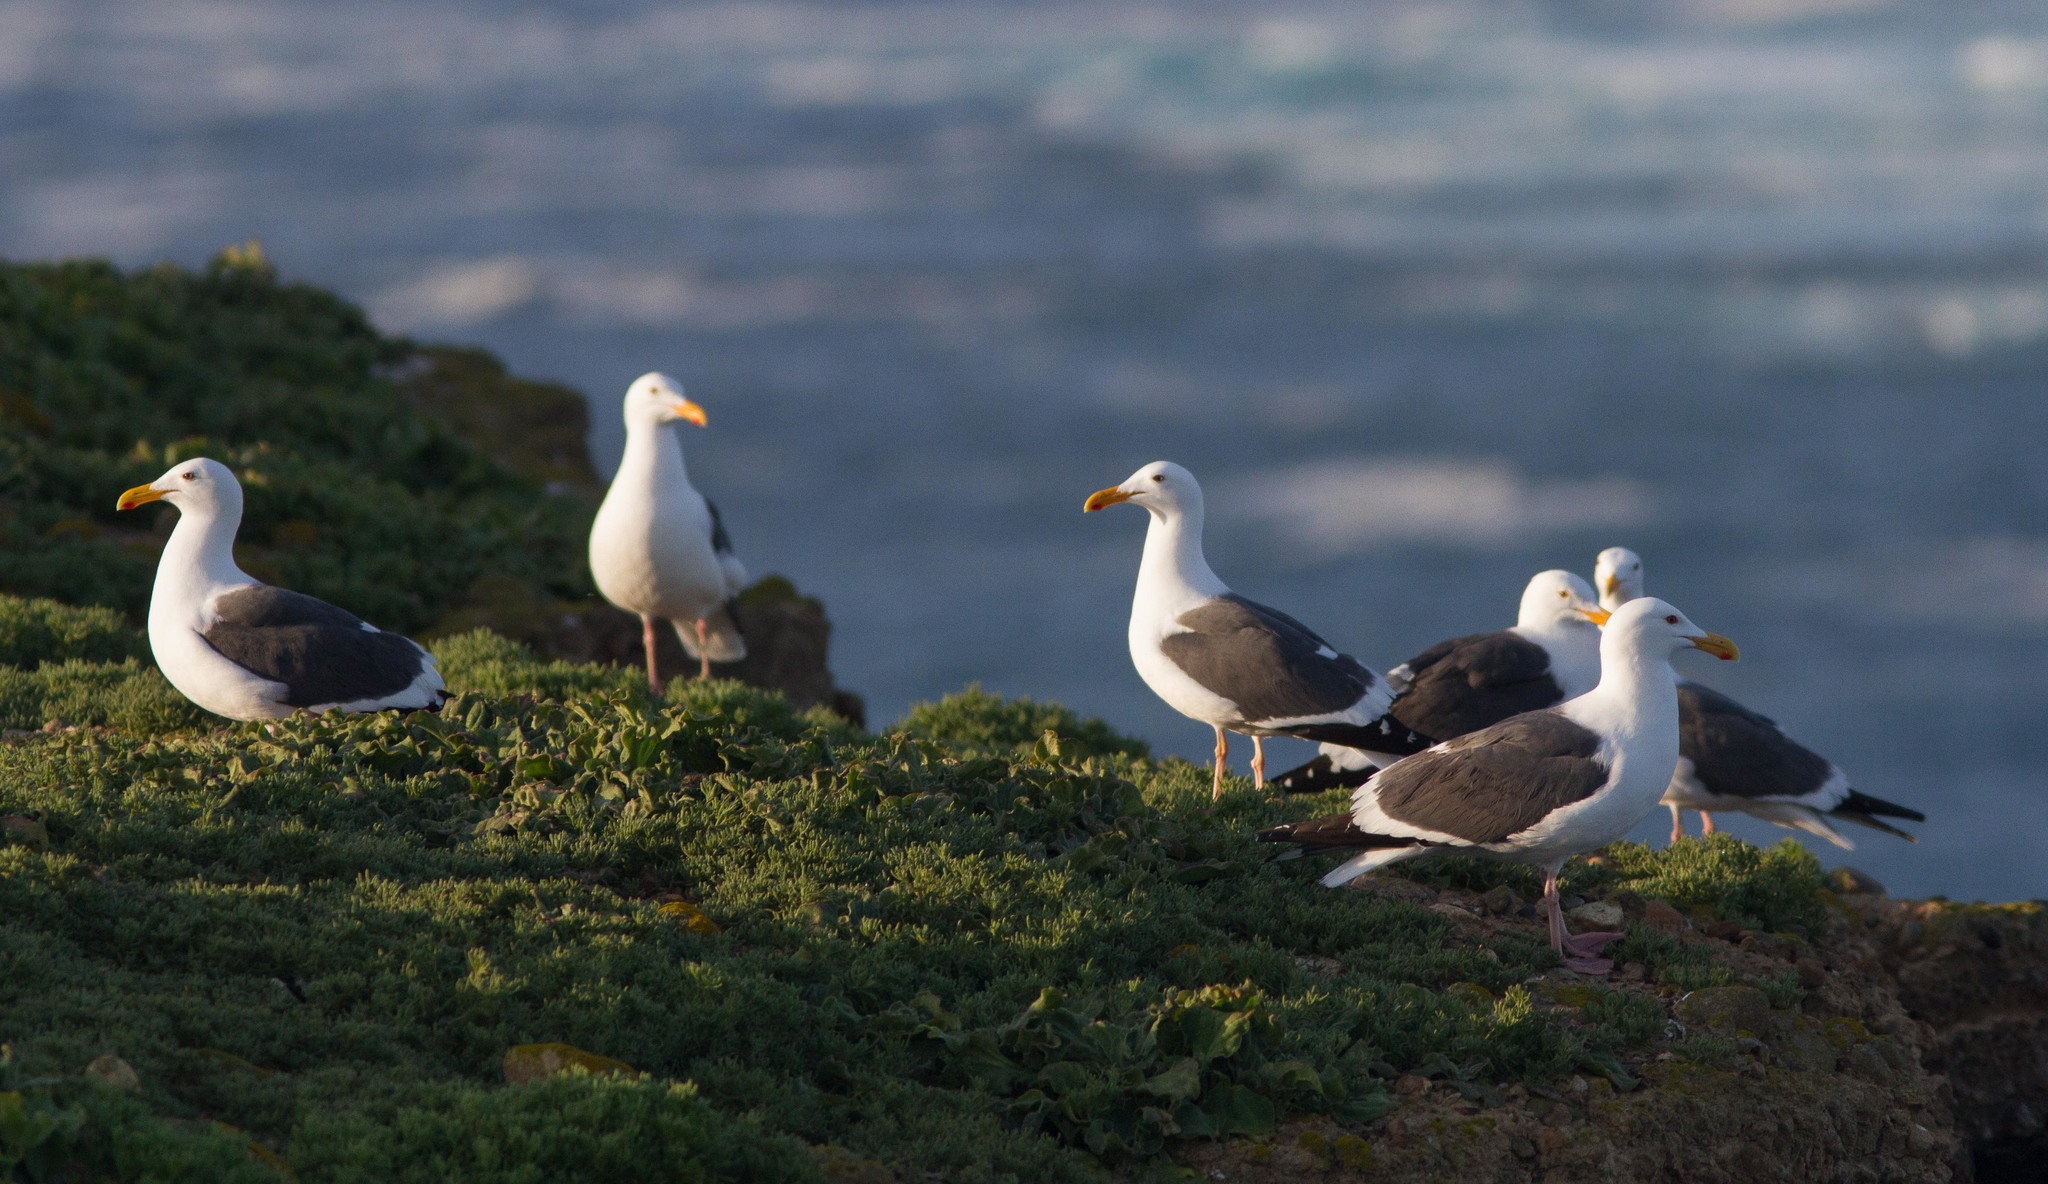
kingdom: Animalia
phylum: Chordata
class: Aves
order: Charadriiformes
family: Laridae
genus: Larus
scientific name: Larus occidentalis
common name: Western gull
